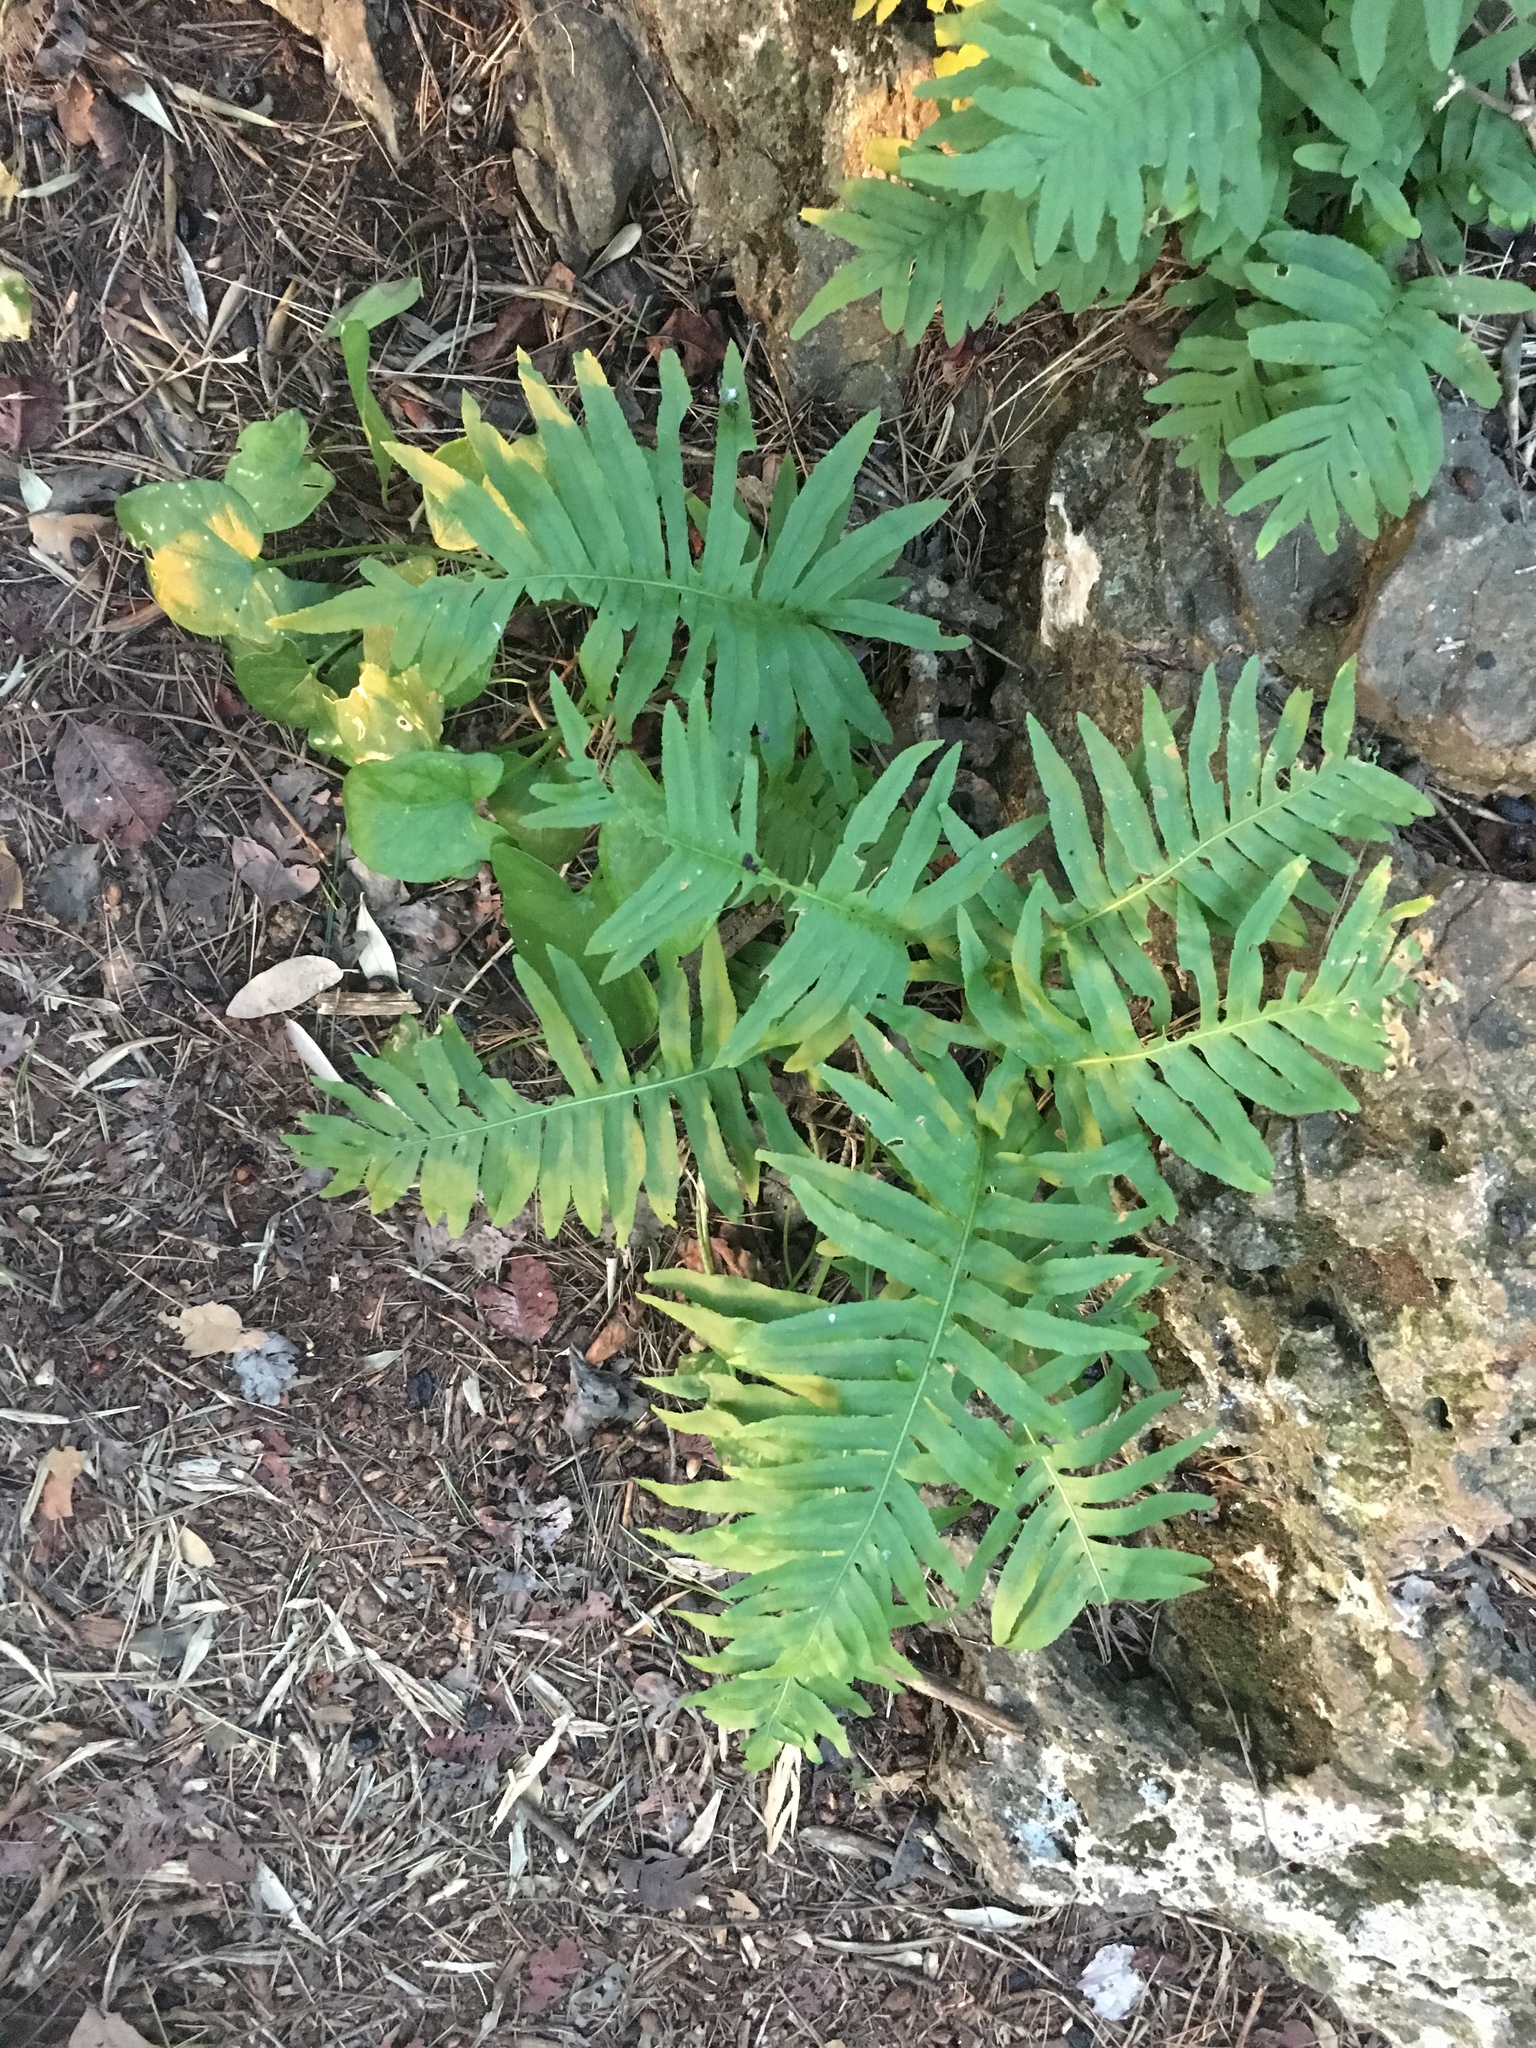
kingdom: Plantae
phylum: Tracheophyta
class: Polypodiopsida
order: Polypodiales
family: Polypodiaceae
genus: Polypodium
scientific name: Polypodium cambricum
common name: Southern polypody
